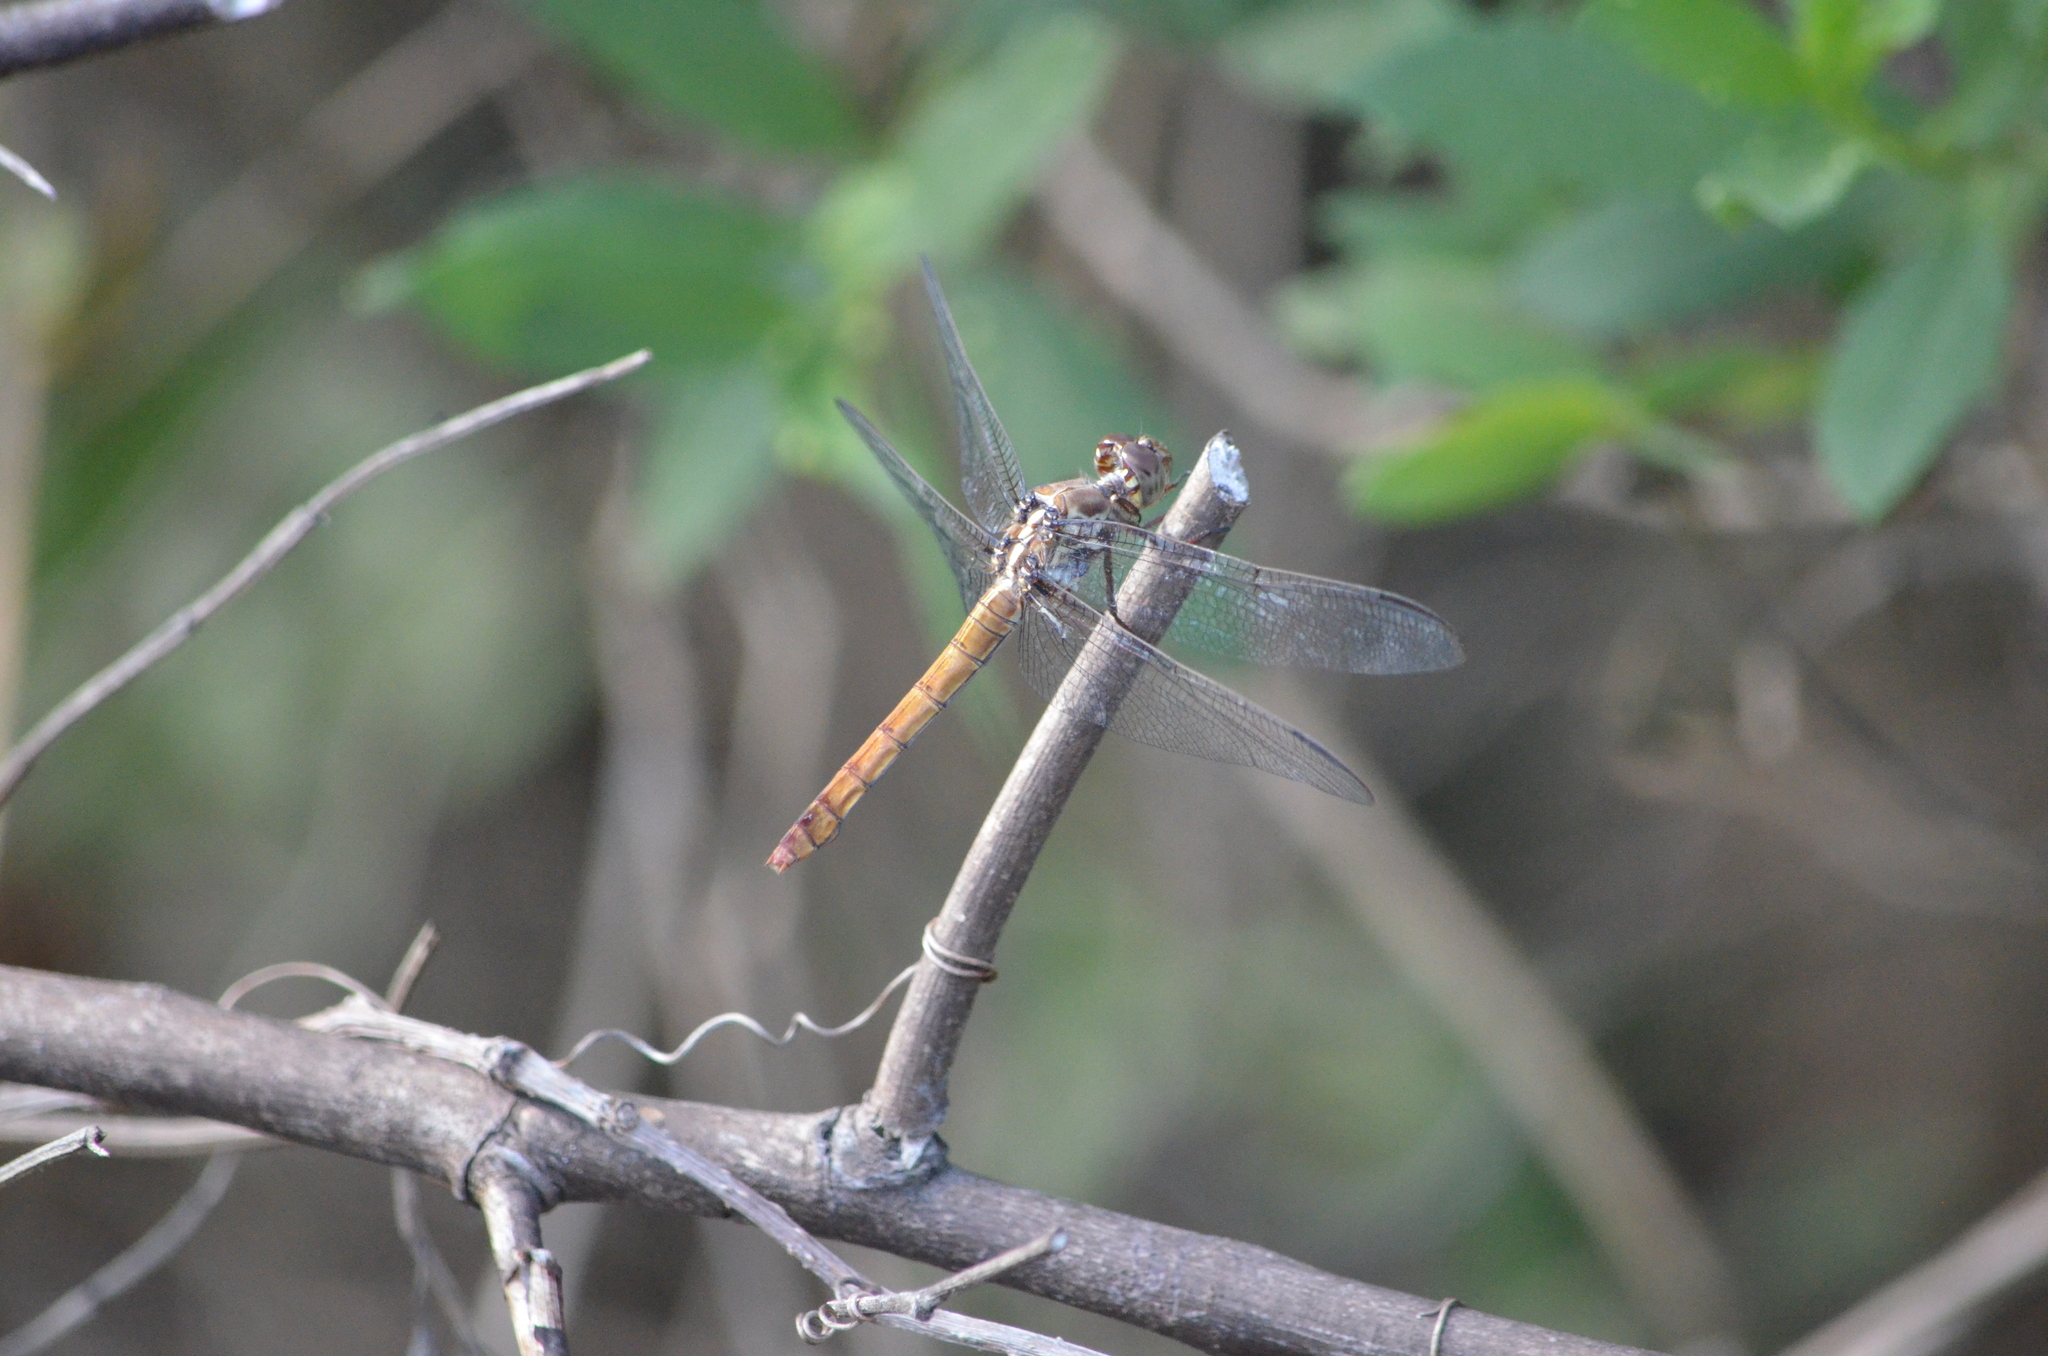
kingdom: Animalia
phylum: Arthropoda
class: Insecta
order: Odonata
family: Libellulidae
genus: Orthemis
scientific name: Orthemis ferruginea
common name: Roseate skimmer
